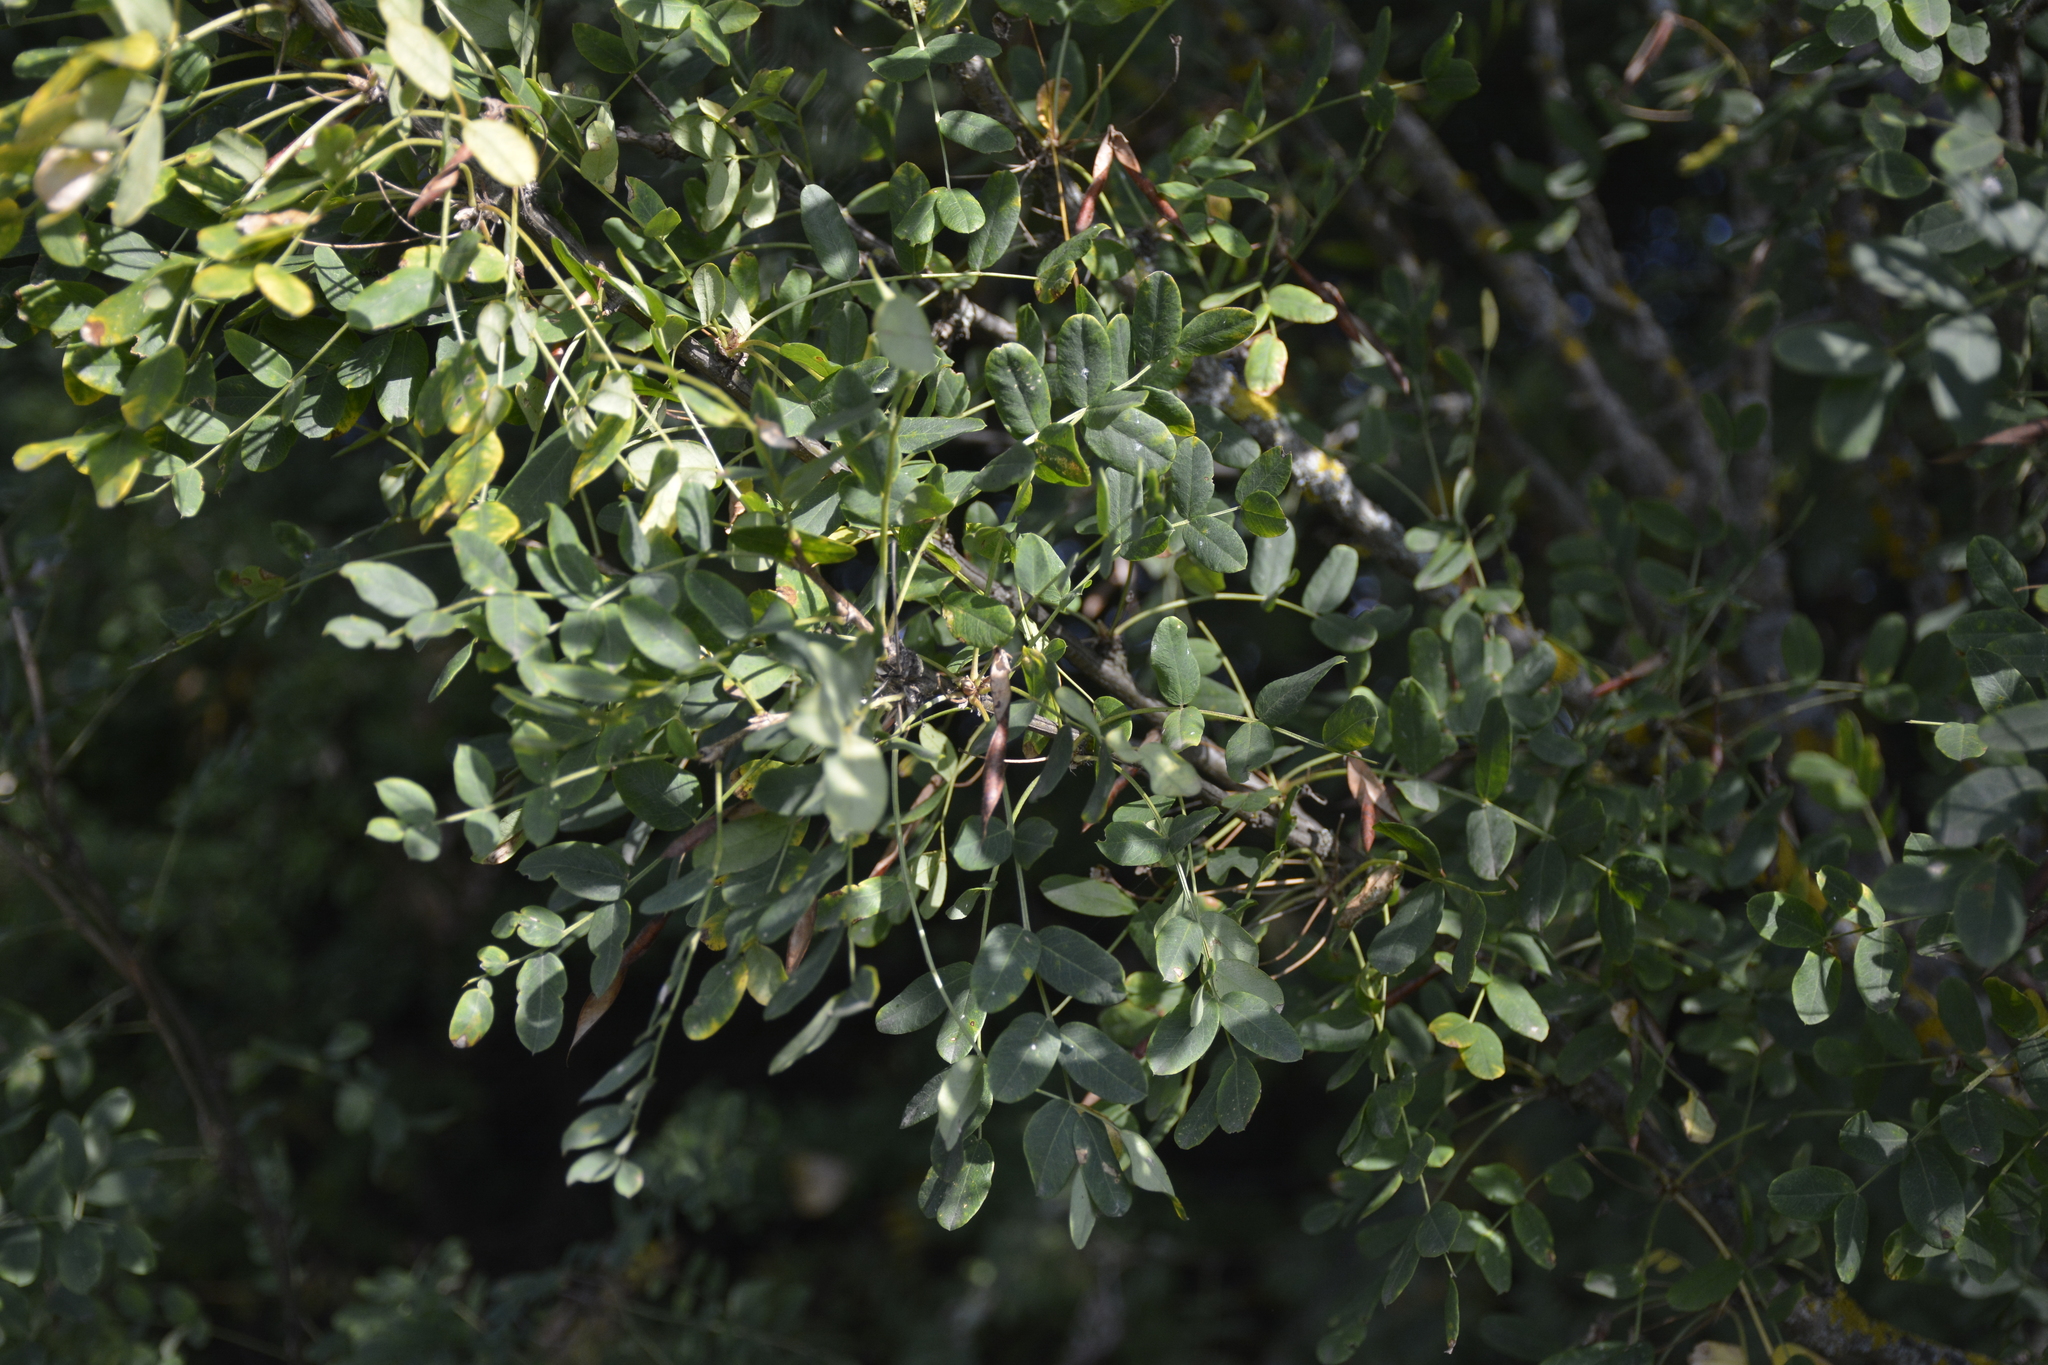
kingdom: Plantae
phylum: Tracheophyta
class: Magnoliopsida
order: Fabales
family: Fabaceae
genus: Caragana
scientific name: Caragana arborescens
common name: Siberian peashrub
